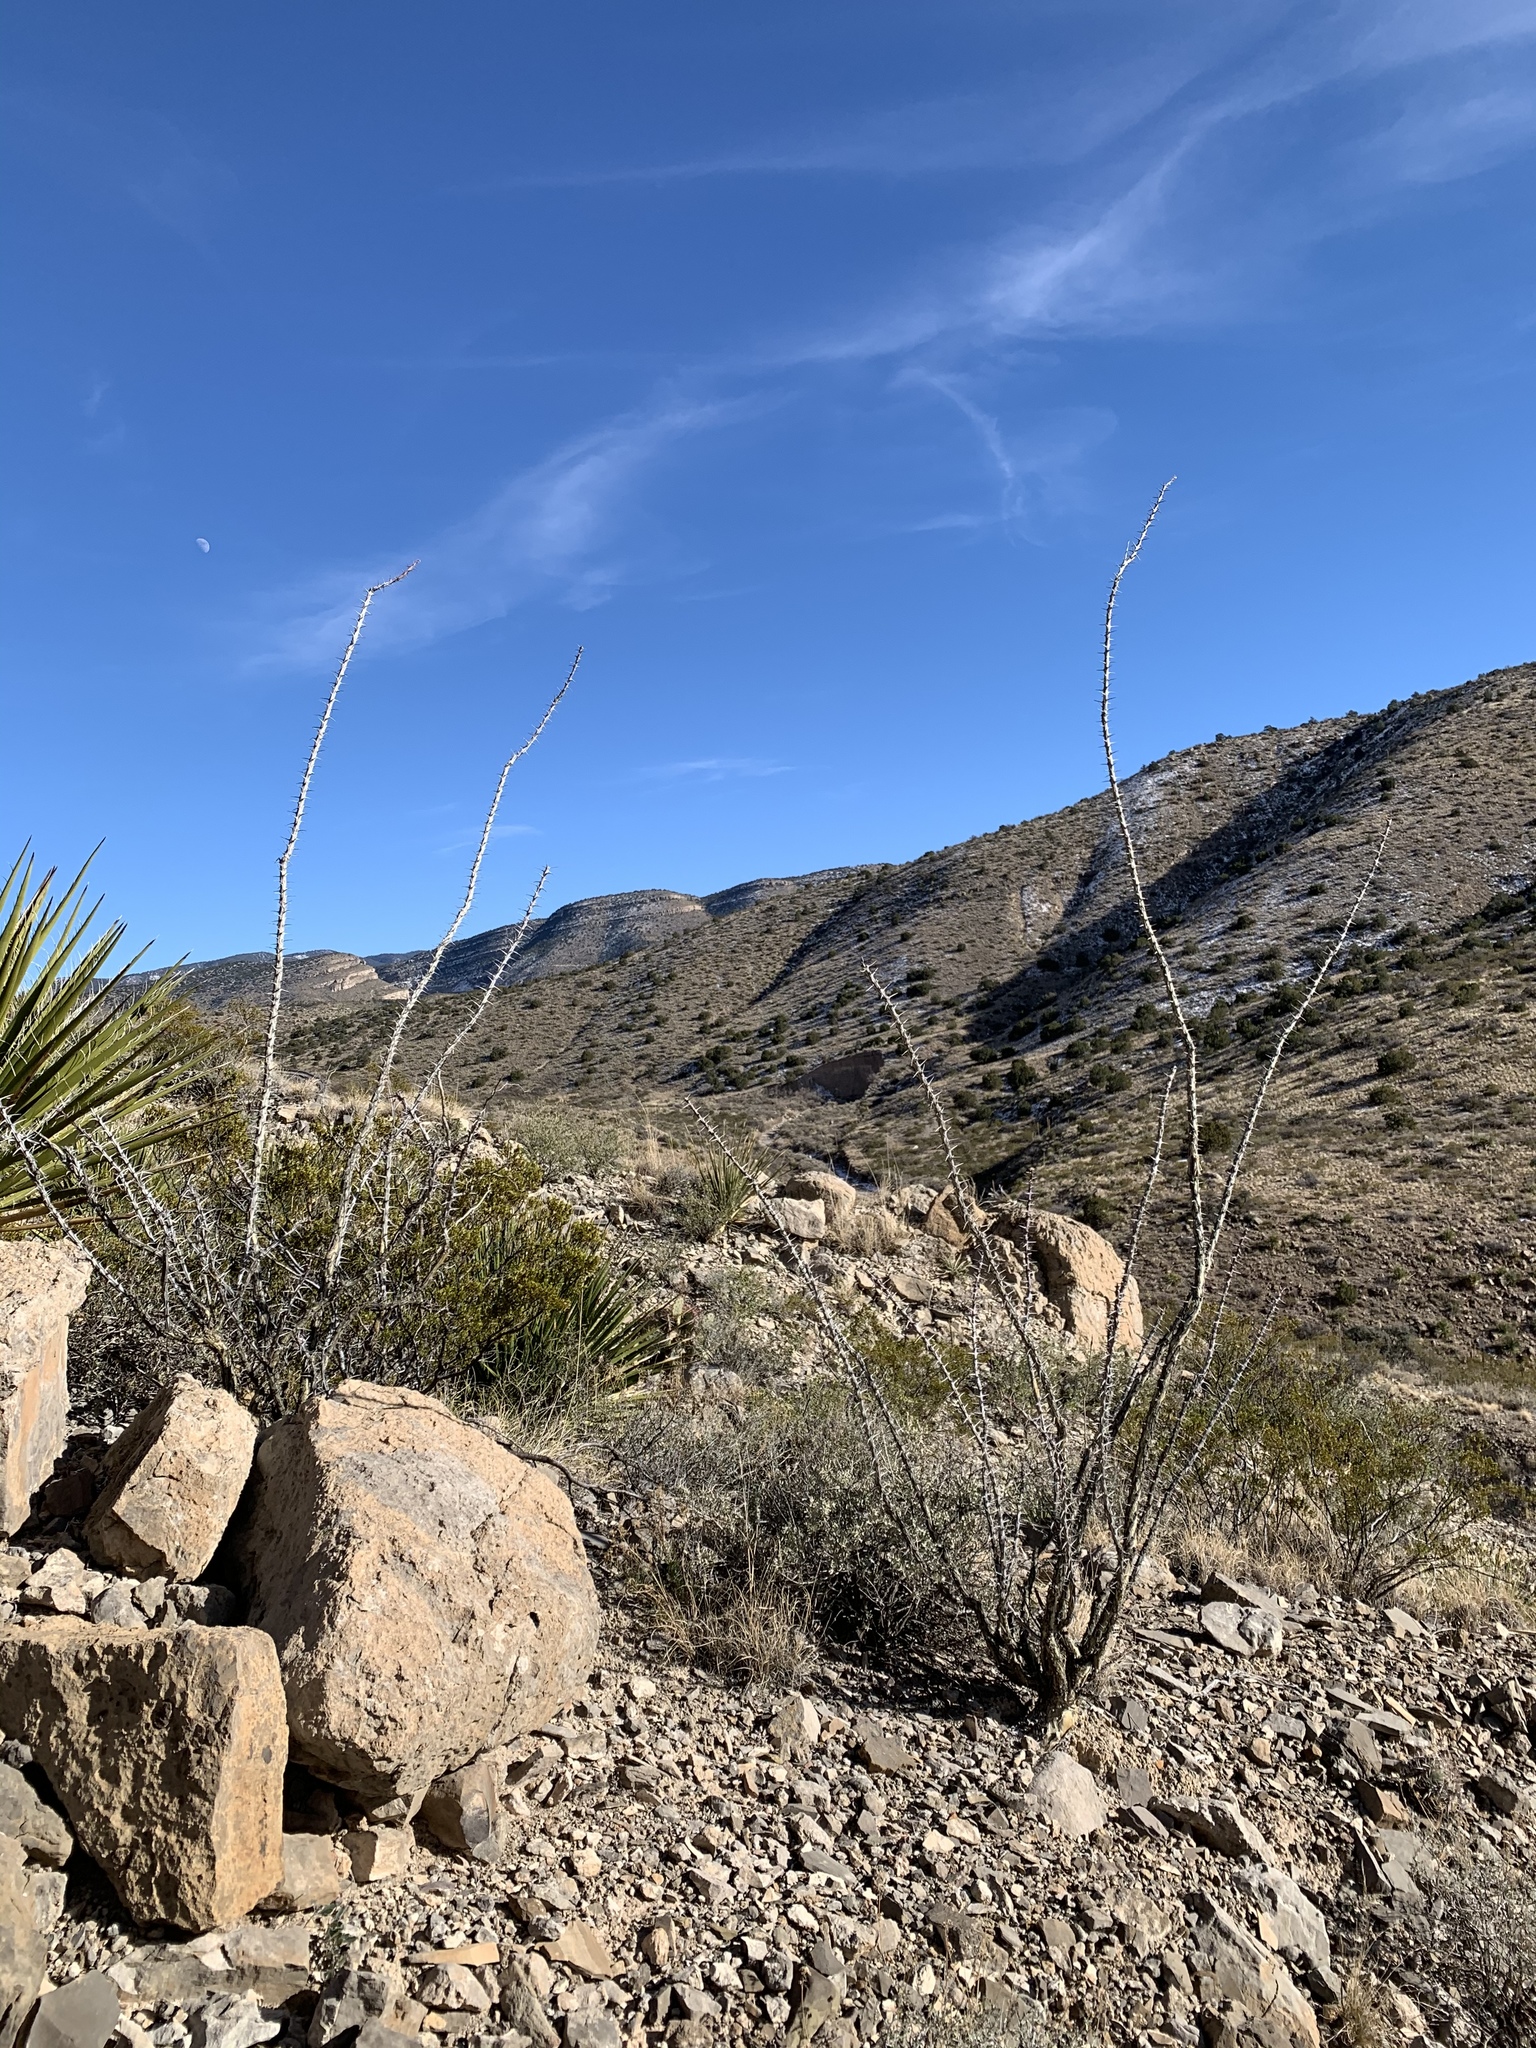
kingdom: Plantae
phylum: Tracheophyta
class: Magnoliopsida
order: Ericales
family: Fouquieriaceae
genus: Fouquieria
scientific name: Fouquieria splendens
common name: Vine-cactus
